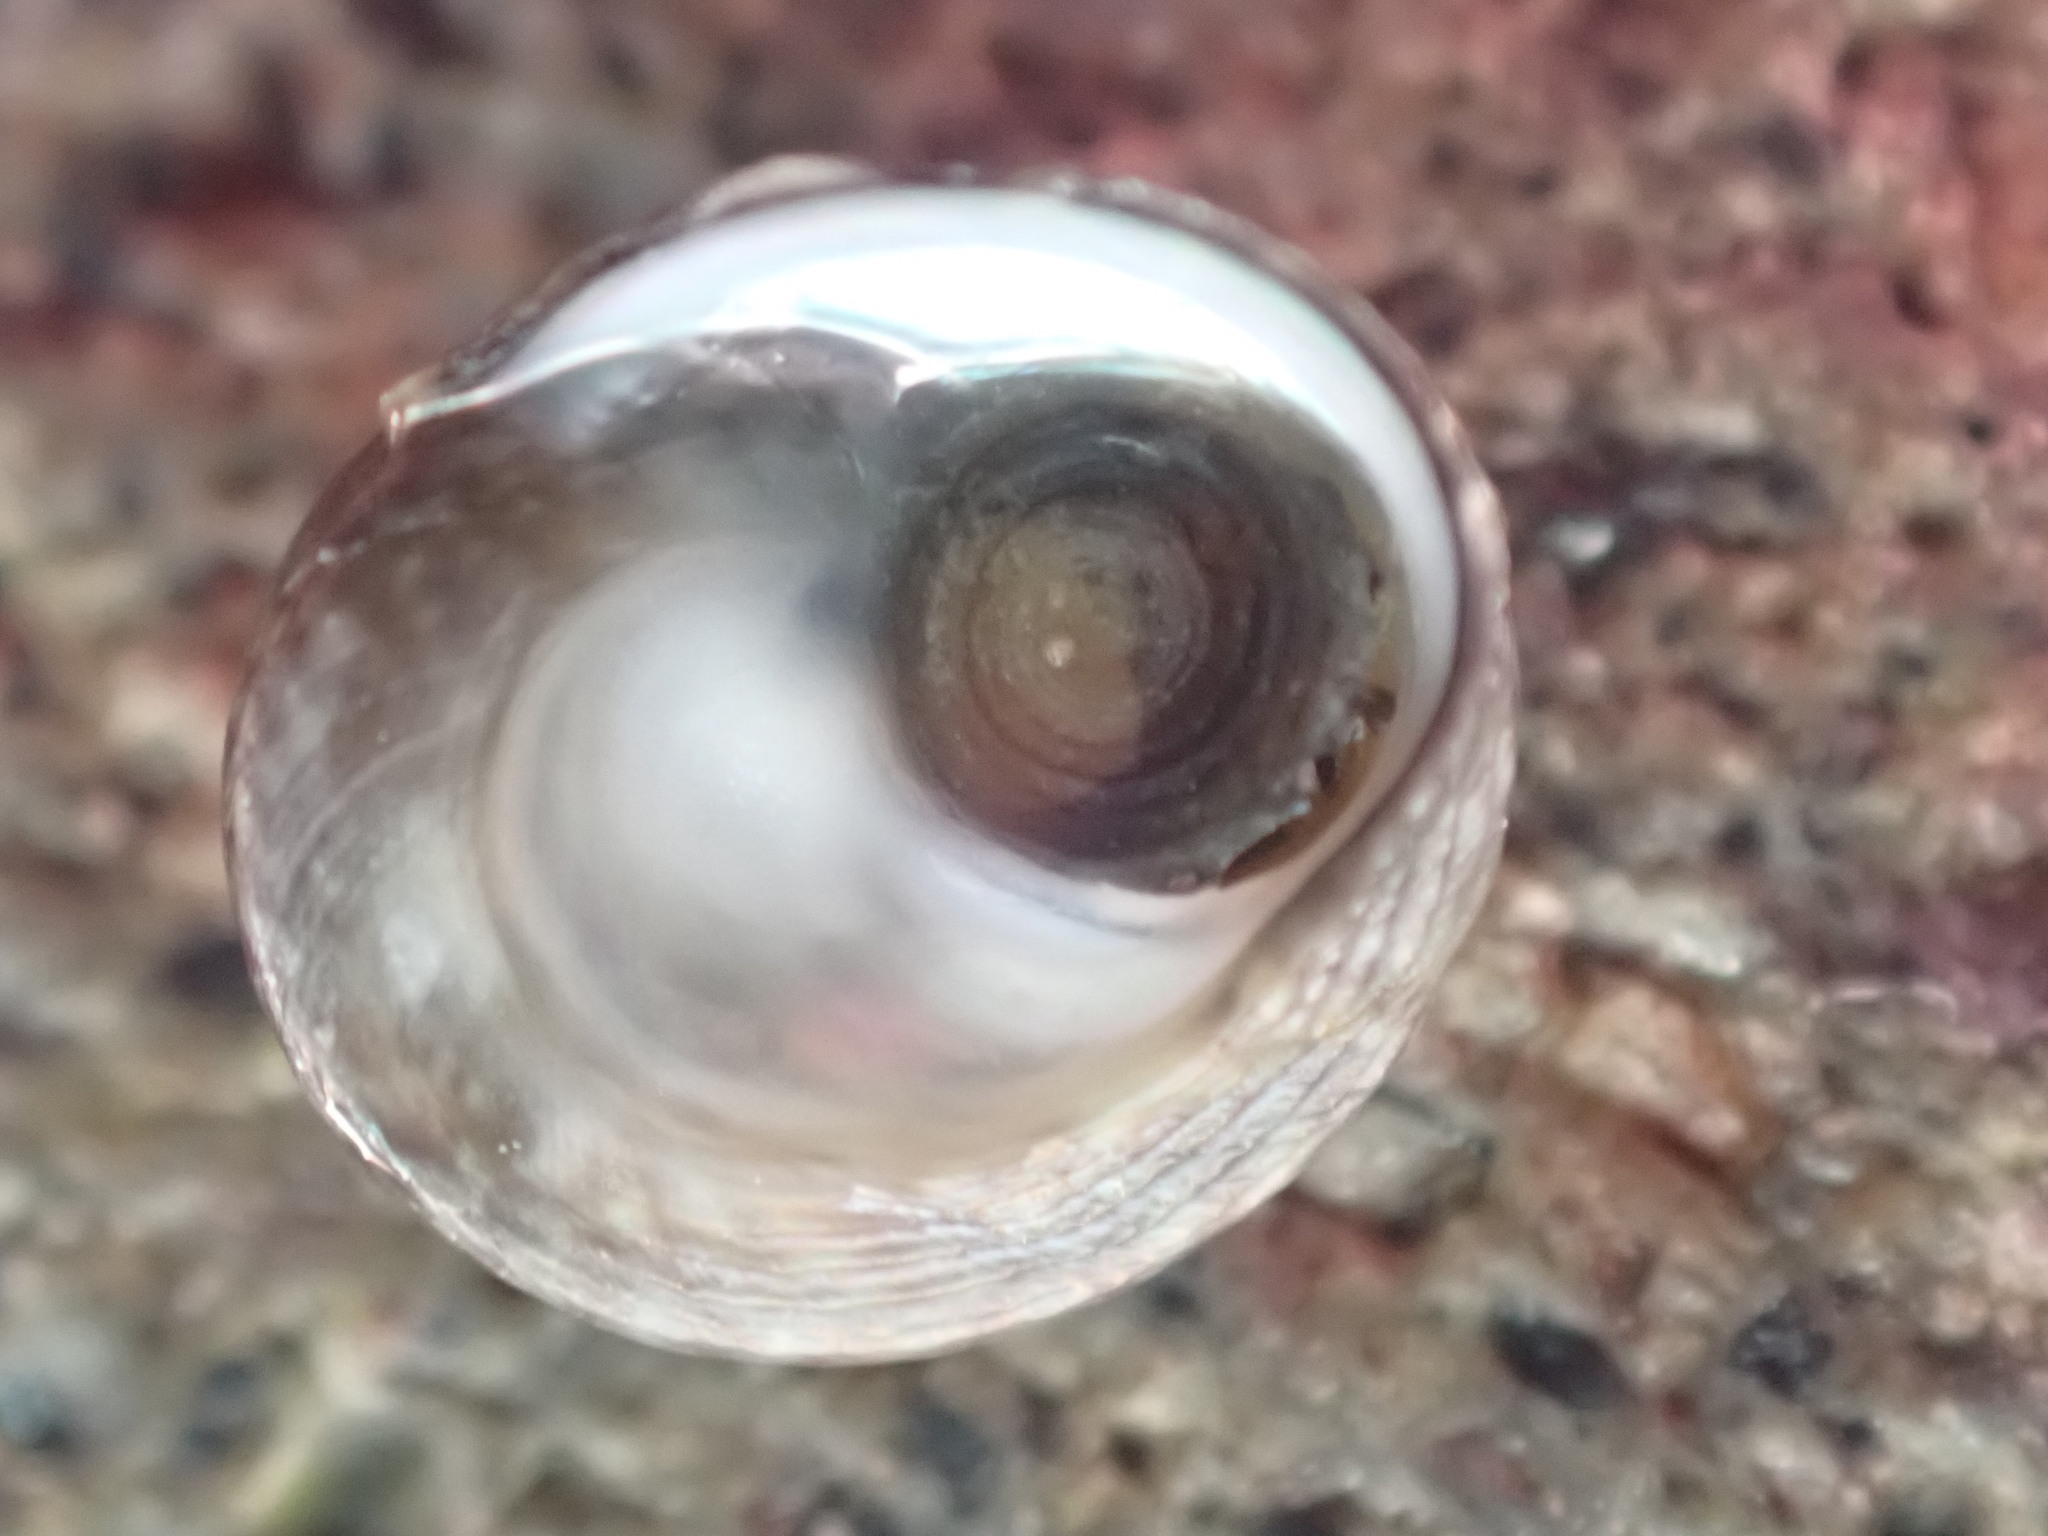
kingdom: Animalia
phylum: Mollusca
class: Gastropoda
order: Trochida
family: Trochidae
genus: Diloma
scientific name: Diloma coracinum
